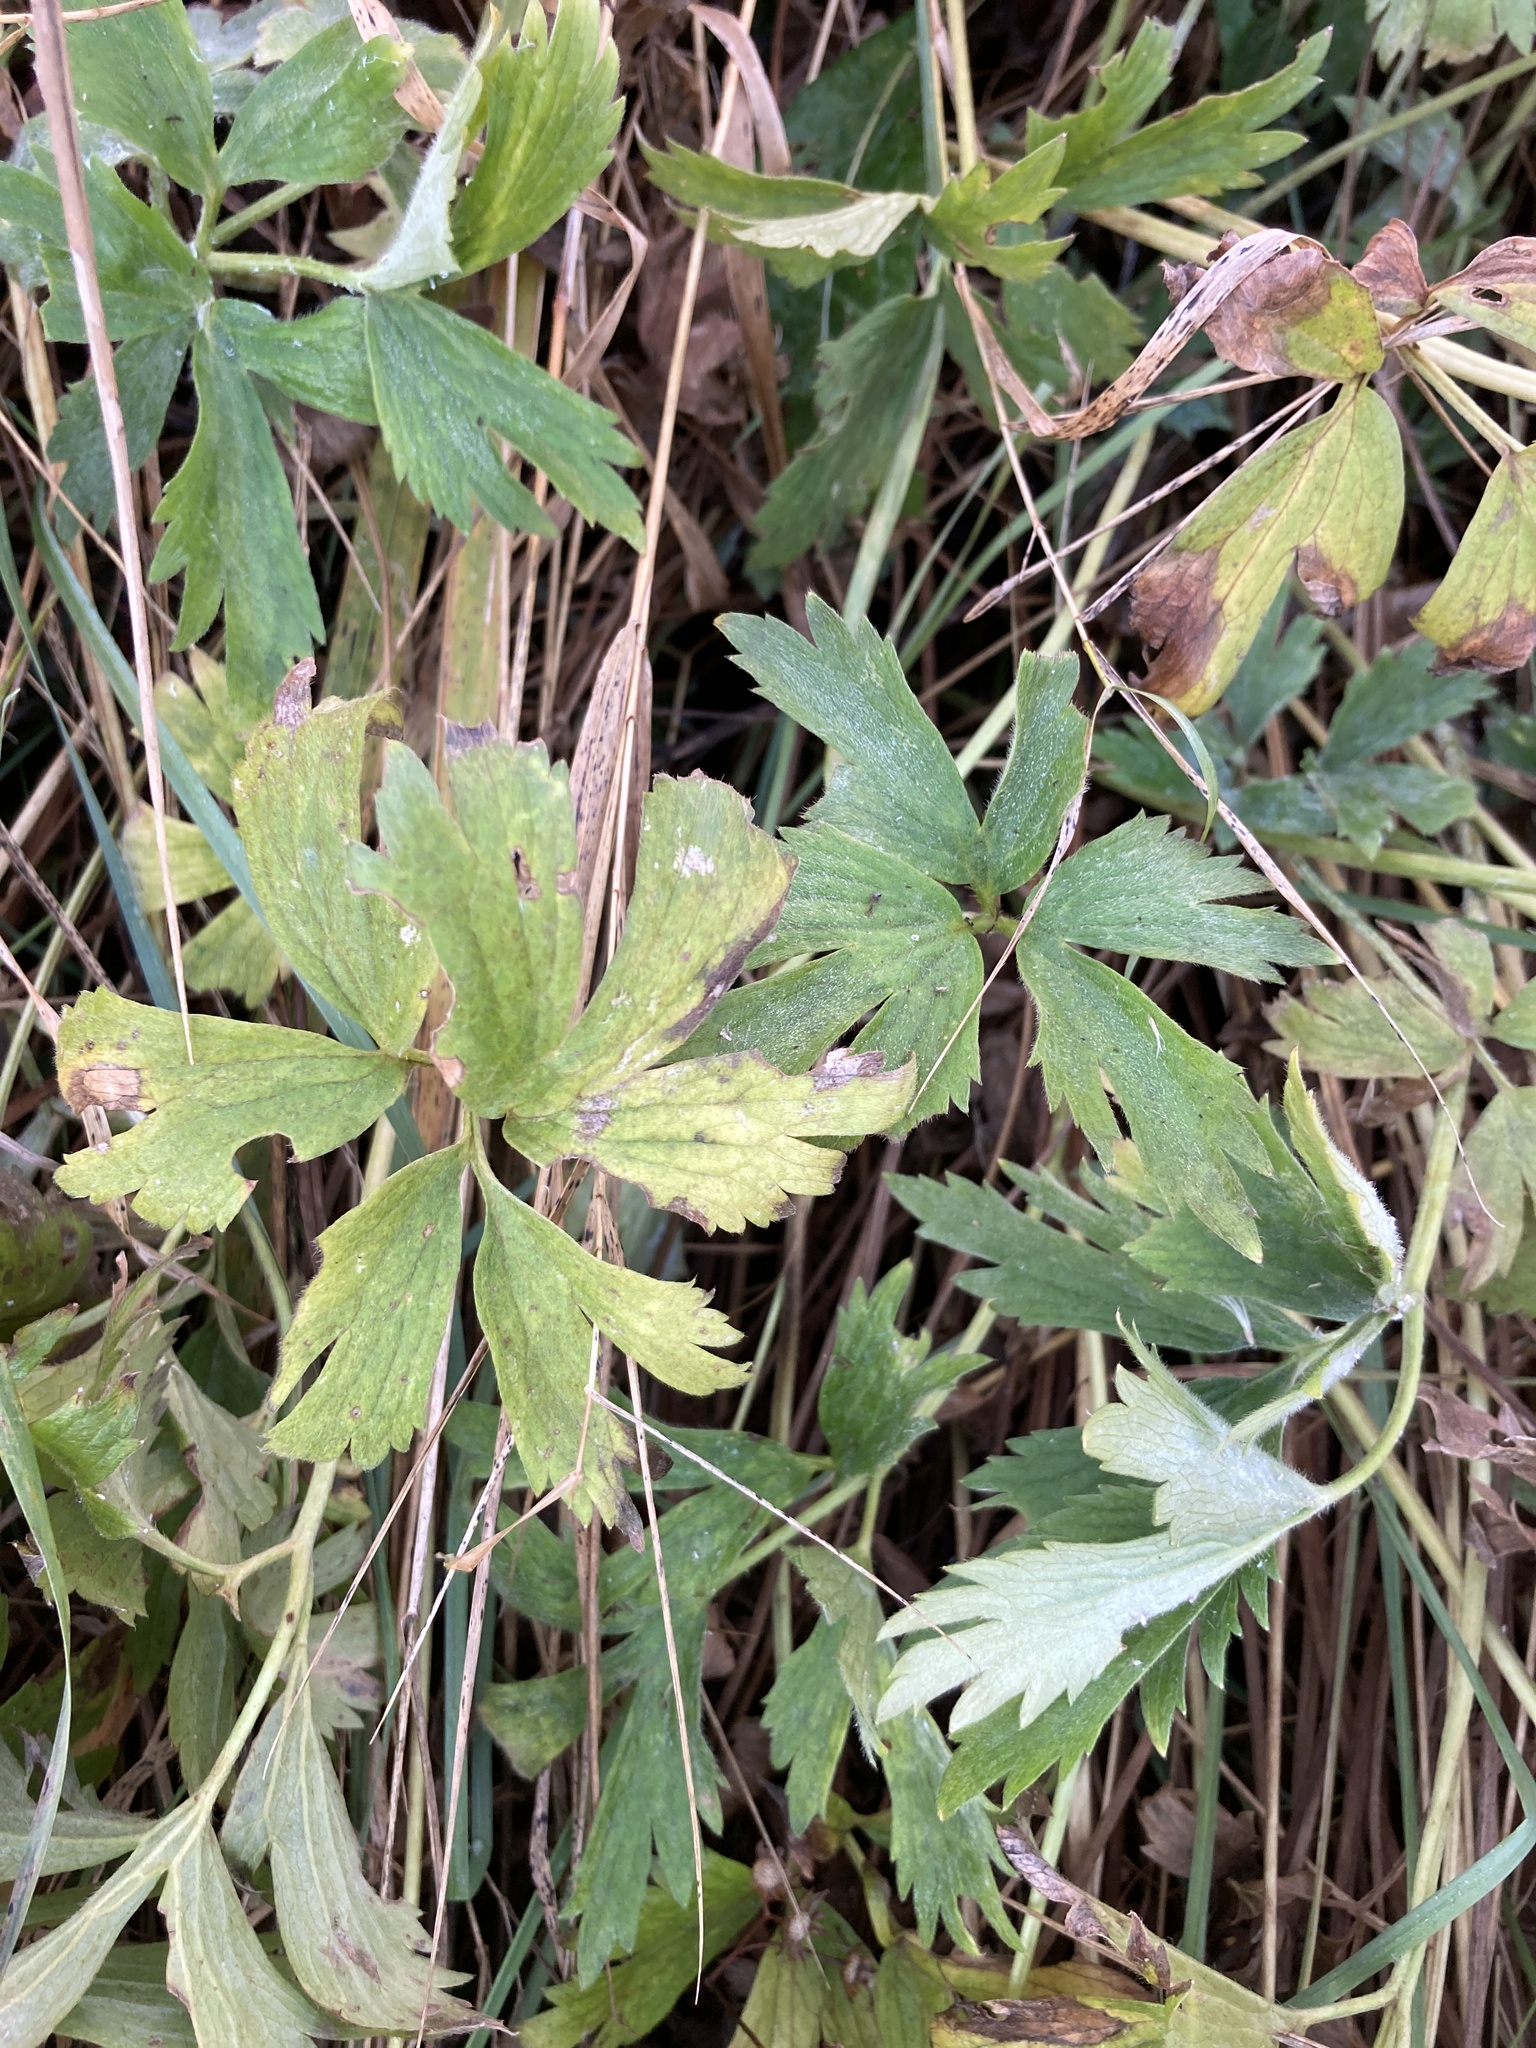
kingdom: Plantae
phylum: Tracheophyta
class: Magnoliopsida
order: Ranunculales
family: Ranunculaceae
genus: Ranunculus
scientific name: Ranunculus repens
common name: Creeping buttercup
